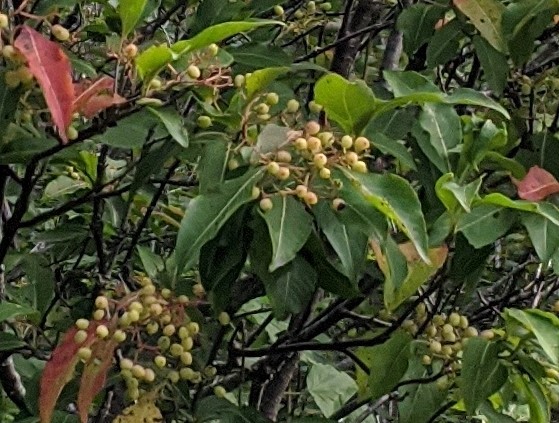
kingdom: Plantae
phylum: Tracheophyta
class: Magnoliopsida
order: Dipsacales
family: Viburnaceae
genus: Viburnum
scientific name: Viburnum cassinoides
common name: Swamp haw
